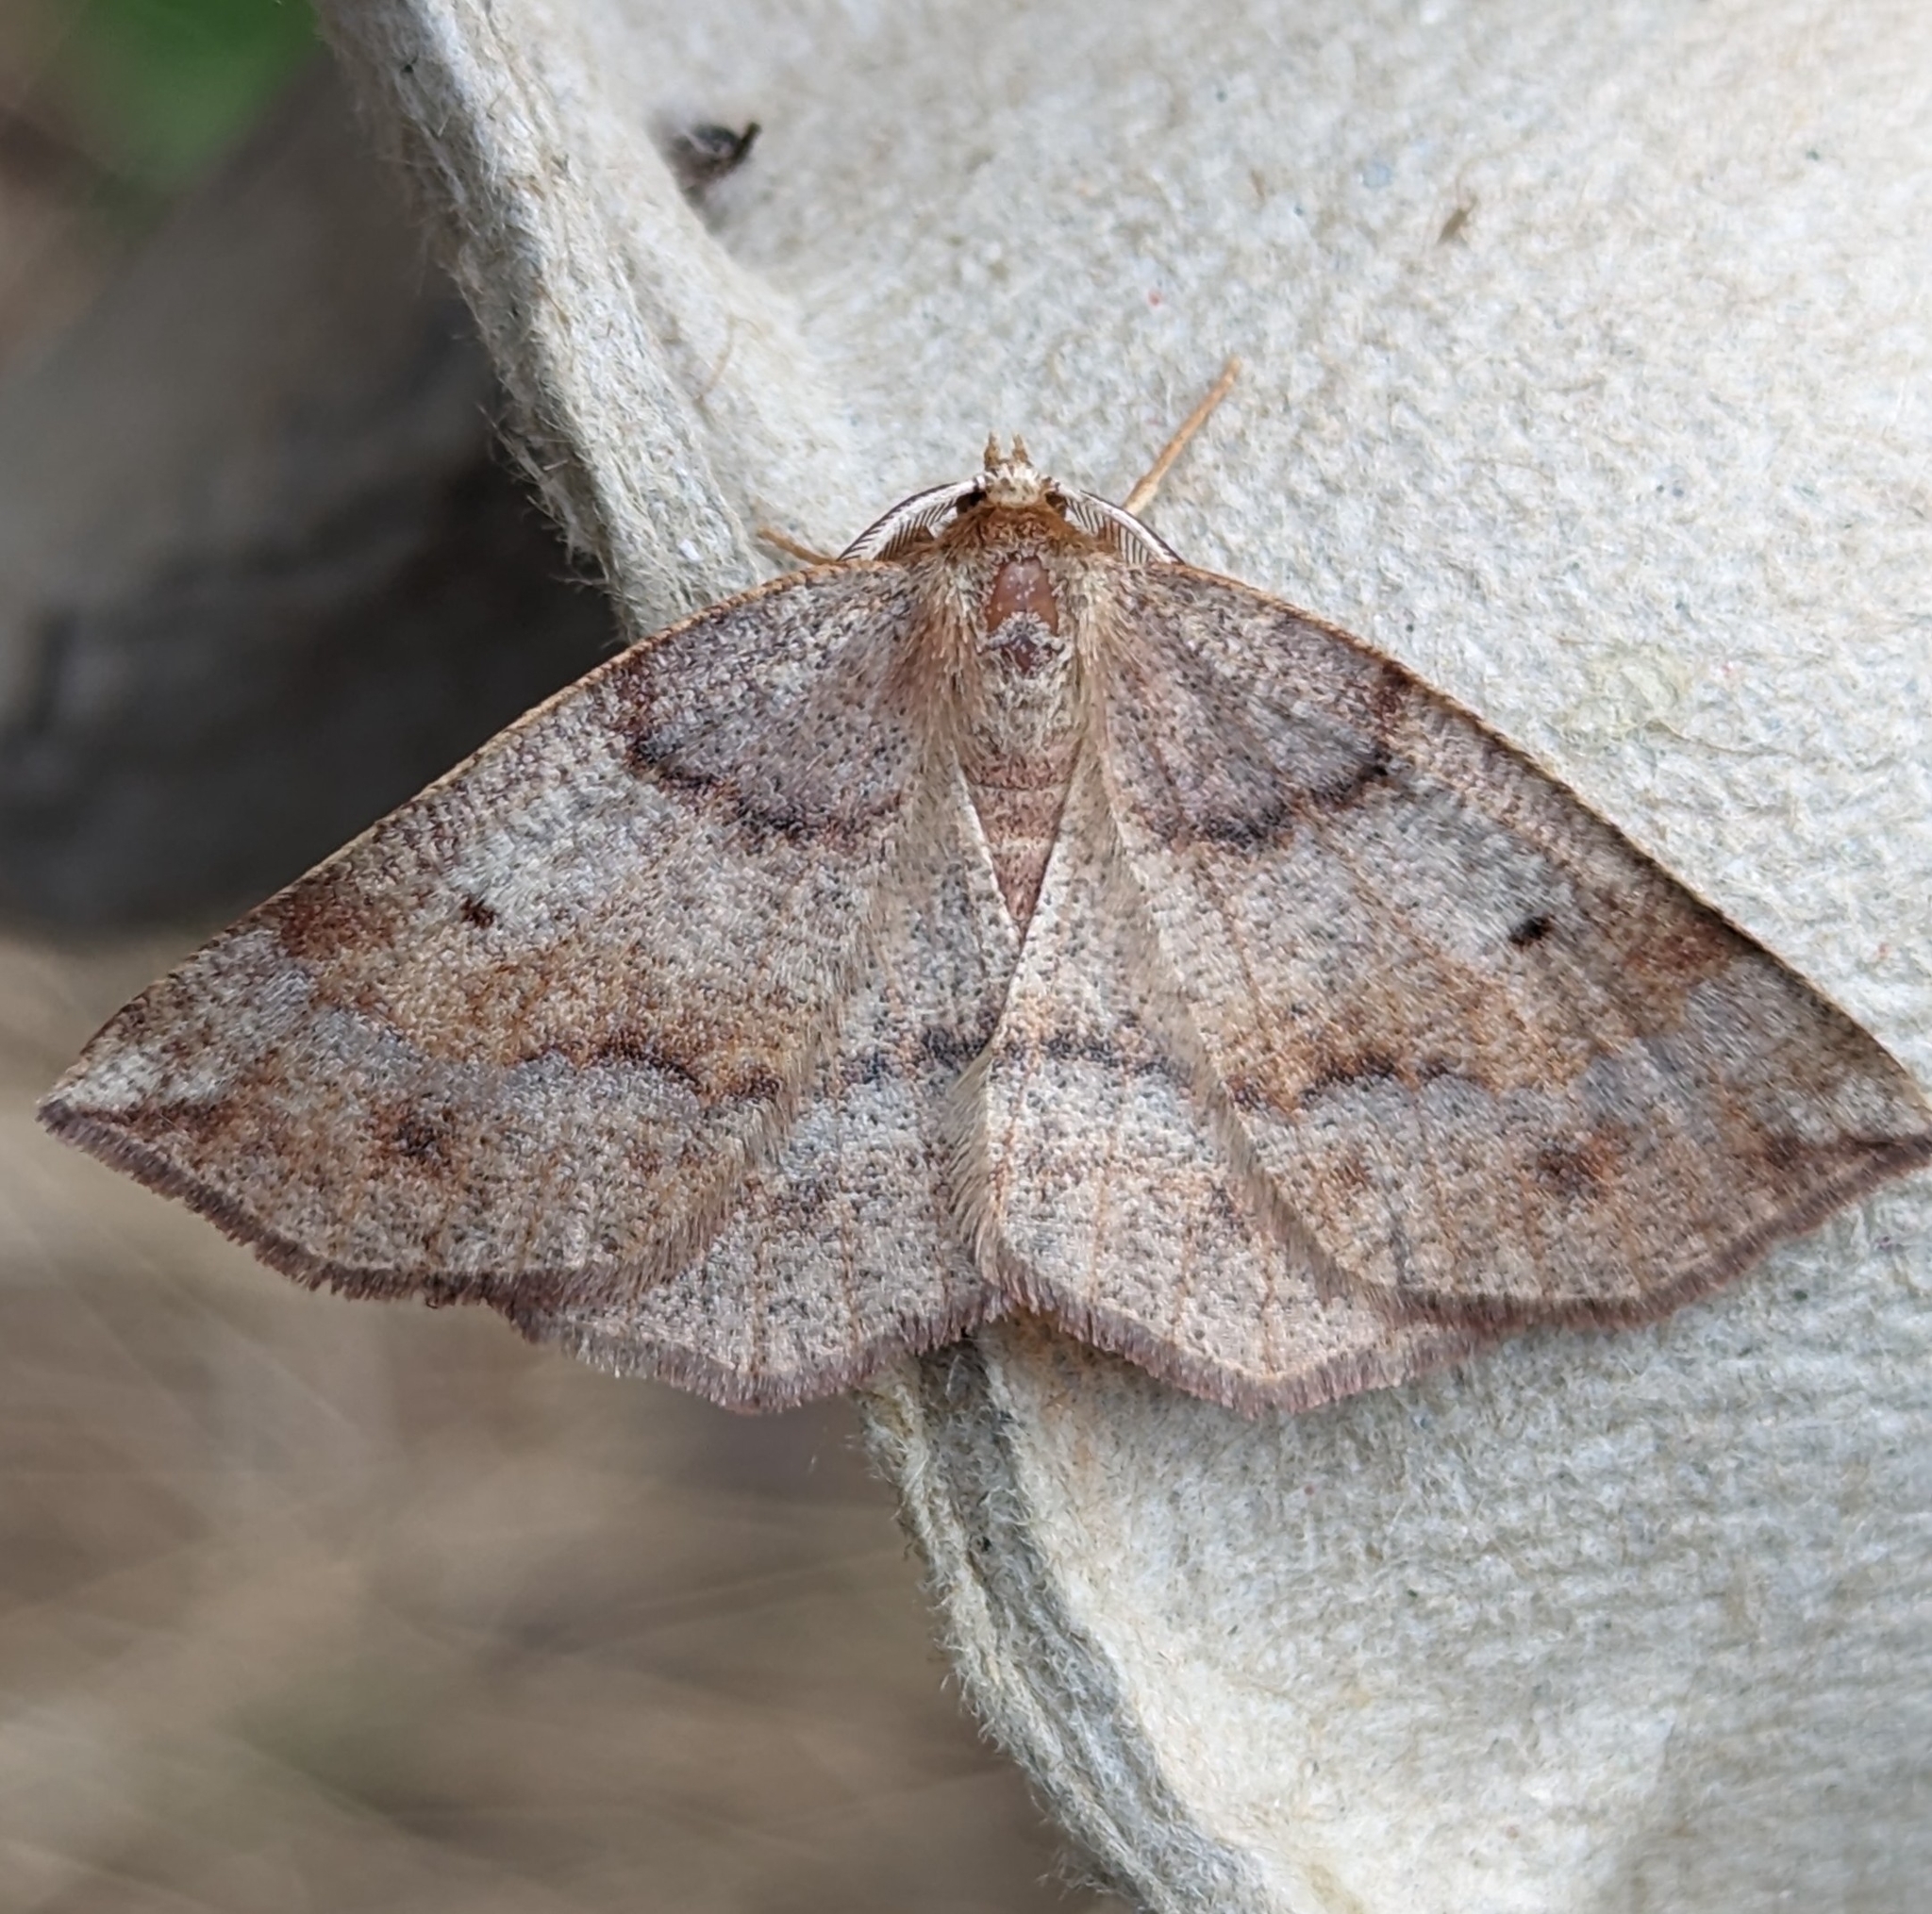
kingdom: Animalia
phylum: Arthropoda
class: Insecta
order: Lepidoptera
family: Geometridae
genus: Metarranthis
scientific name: Metarranthis duaria
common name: Ruddy metarranthis moth
